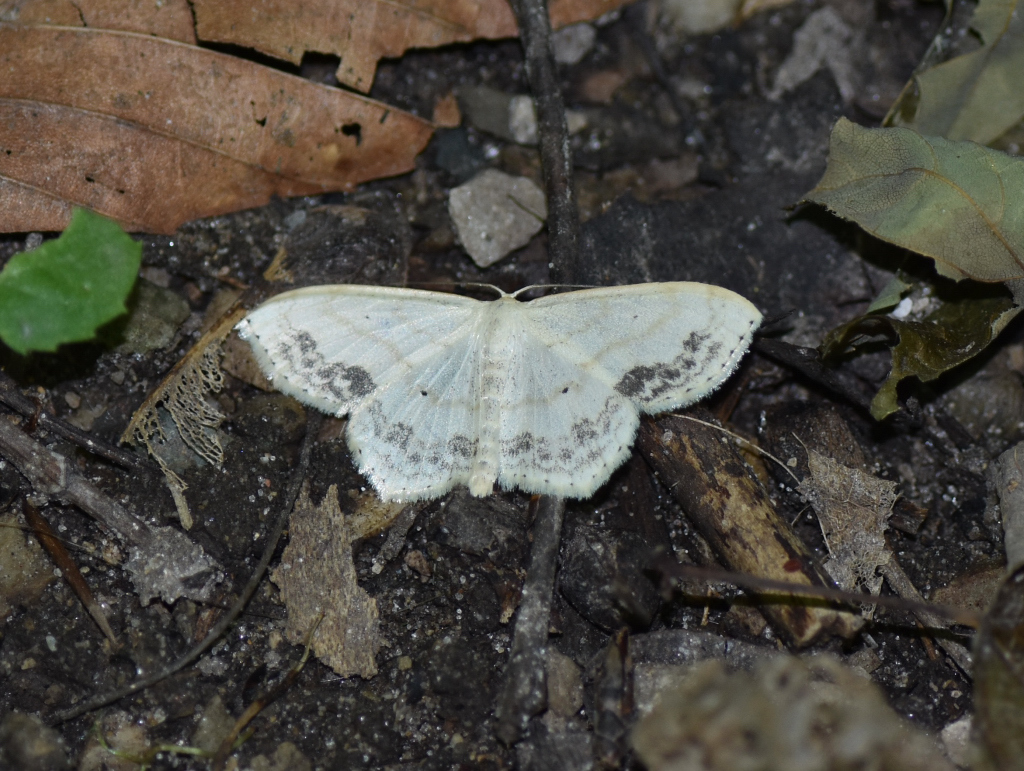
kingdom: Animalia
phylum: Arthropoda
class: Insecta
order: Lepidoptera
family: Geometridae
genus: Scopula
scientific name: Scopula limboundata
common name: Large lace border
